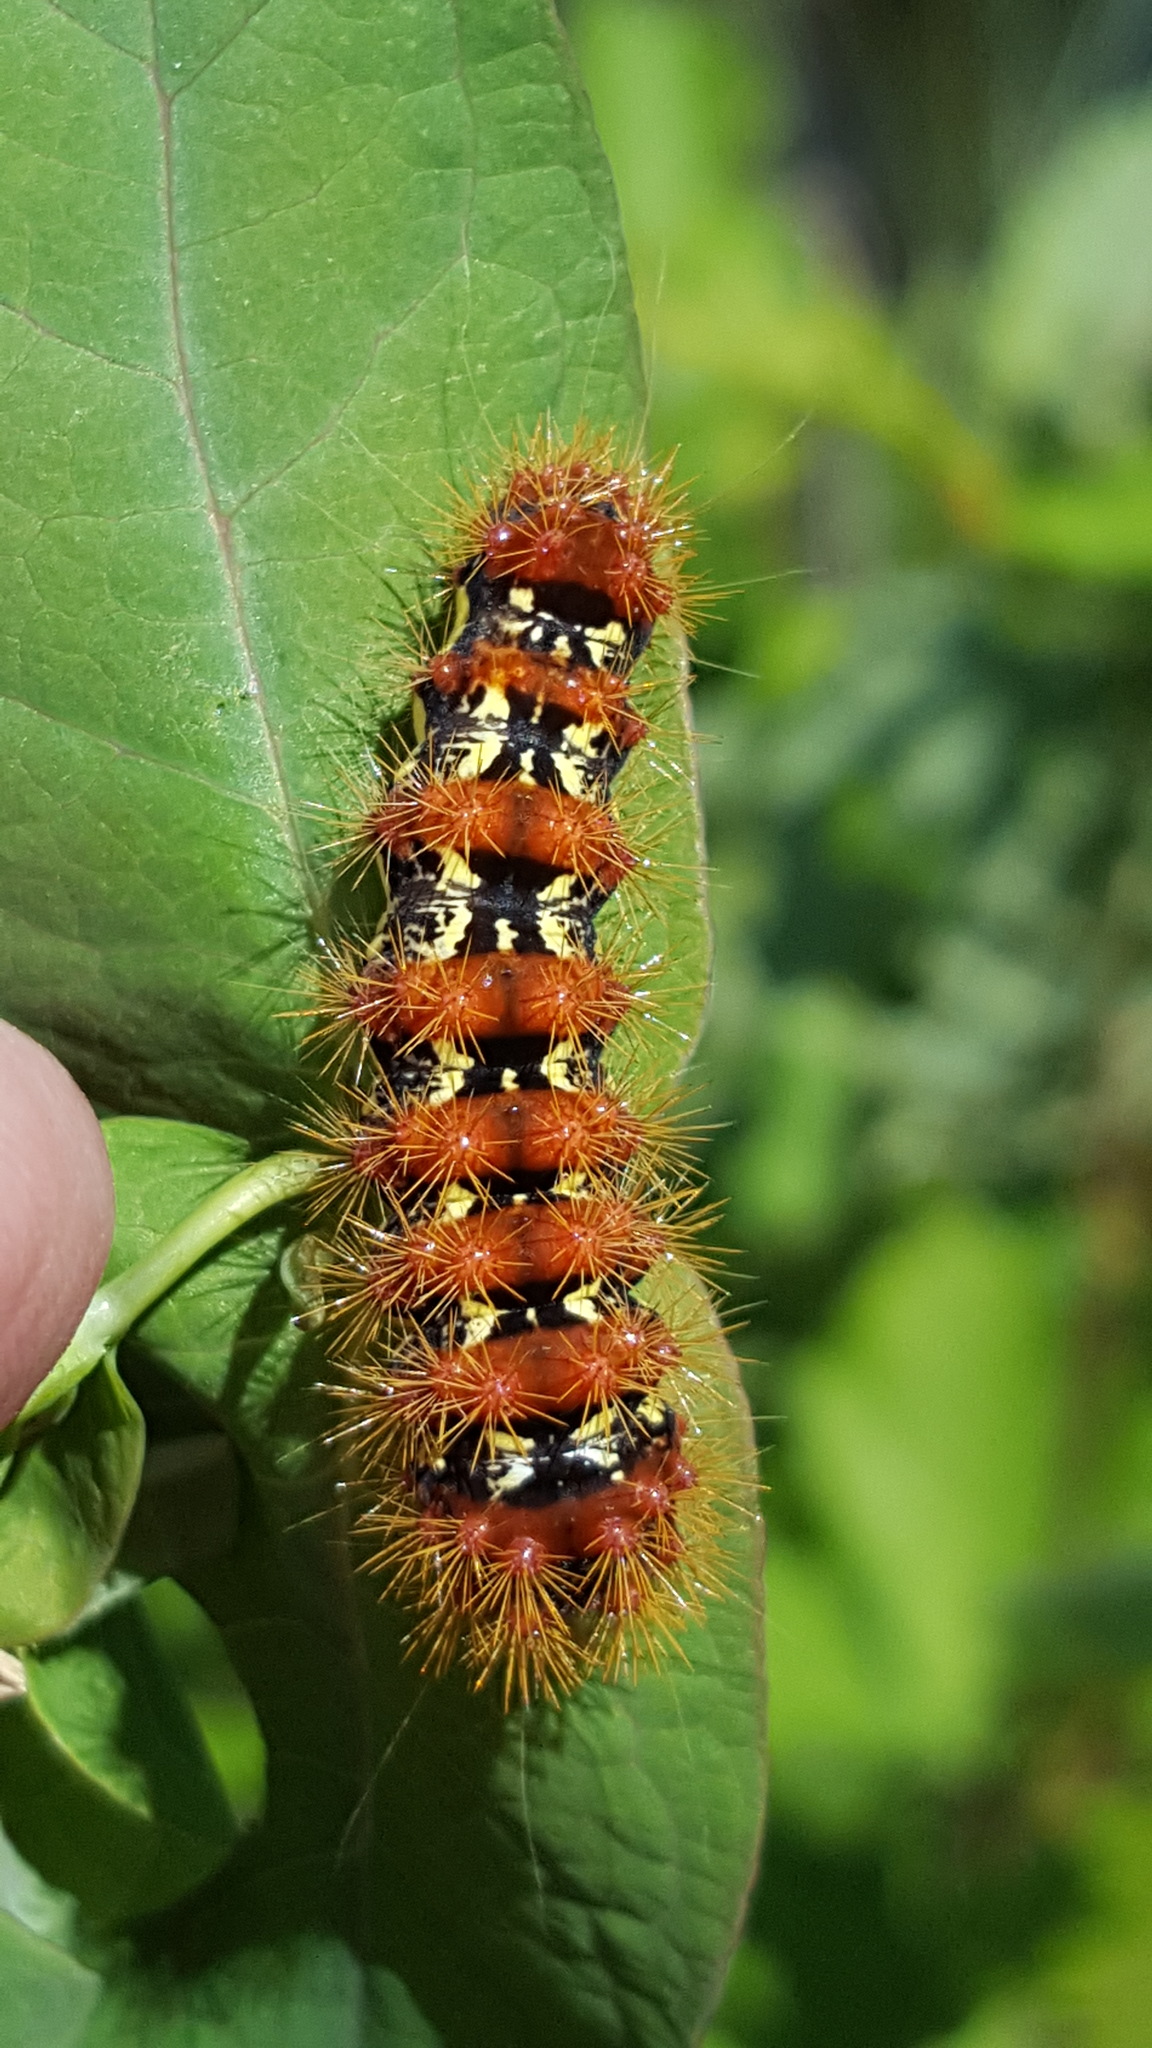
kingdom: Animalia
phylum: Arthropoda
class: Insecta
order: Lepidoptera
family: Noctuidae
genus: Acronicta
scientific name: Acronicta oblinita
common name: Smeared dagger
